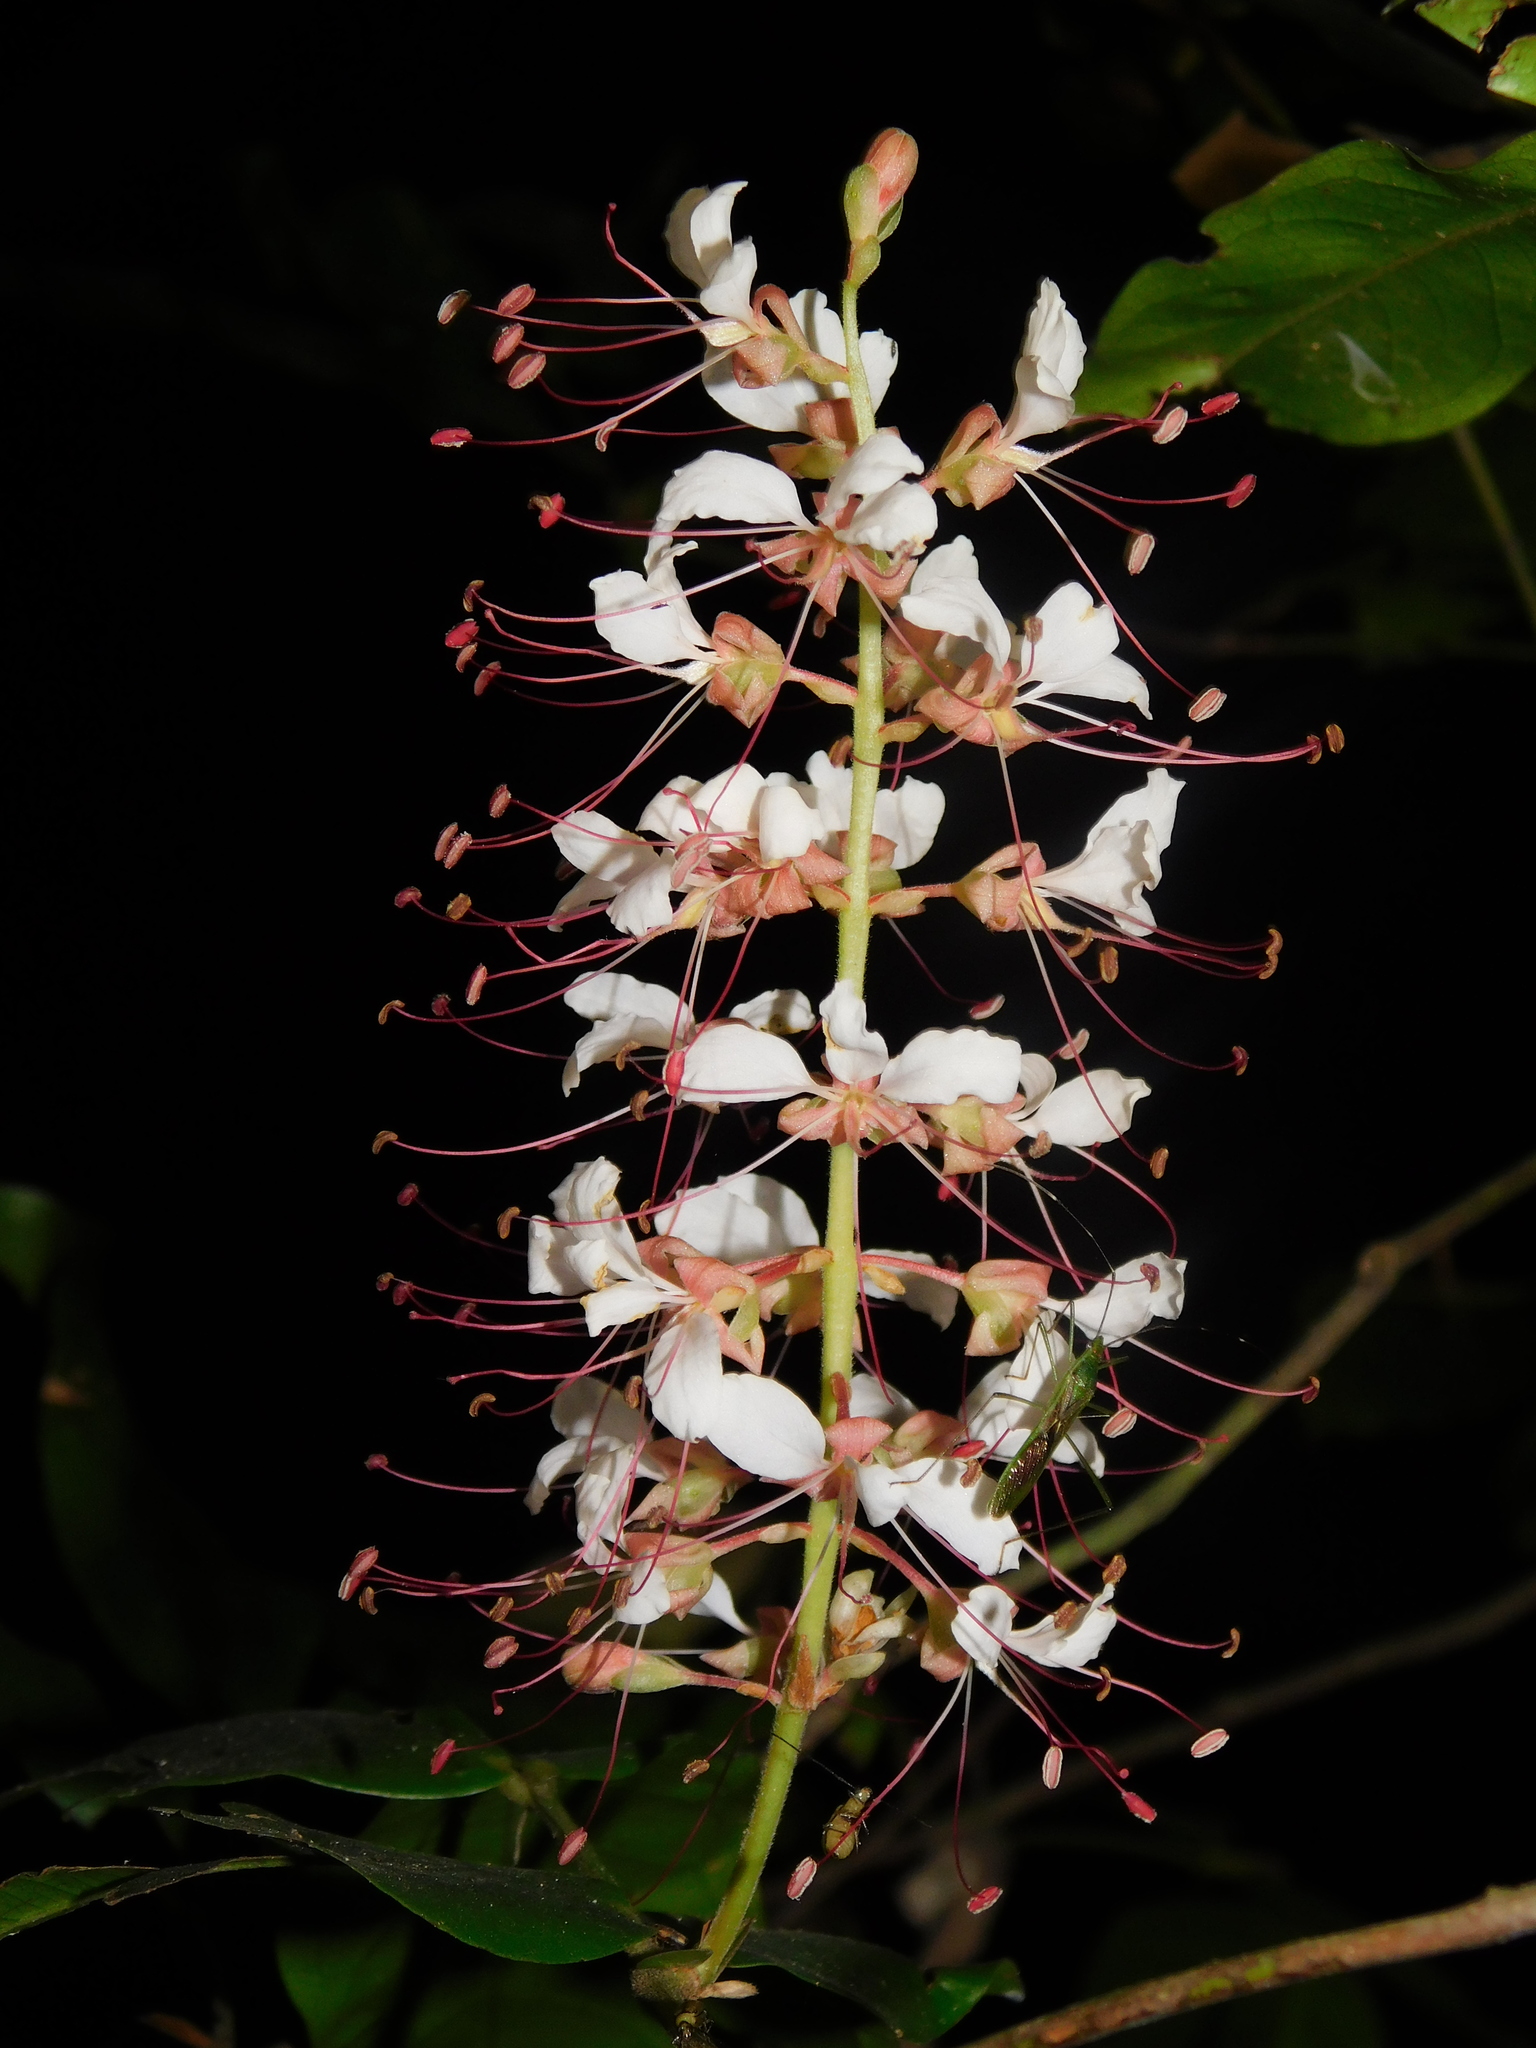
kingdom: Plantae
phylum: Tracheophyta
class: Magnoliopsida
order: Fabales
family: Fabaceae
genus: Humboldtia
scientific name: Humboldtia brunonis
